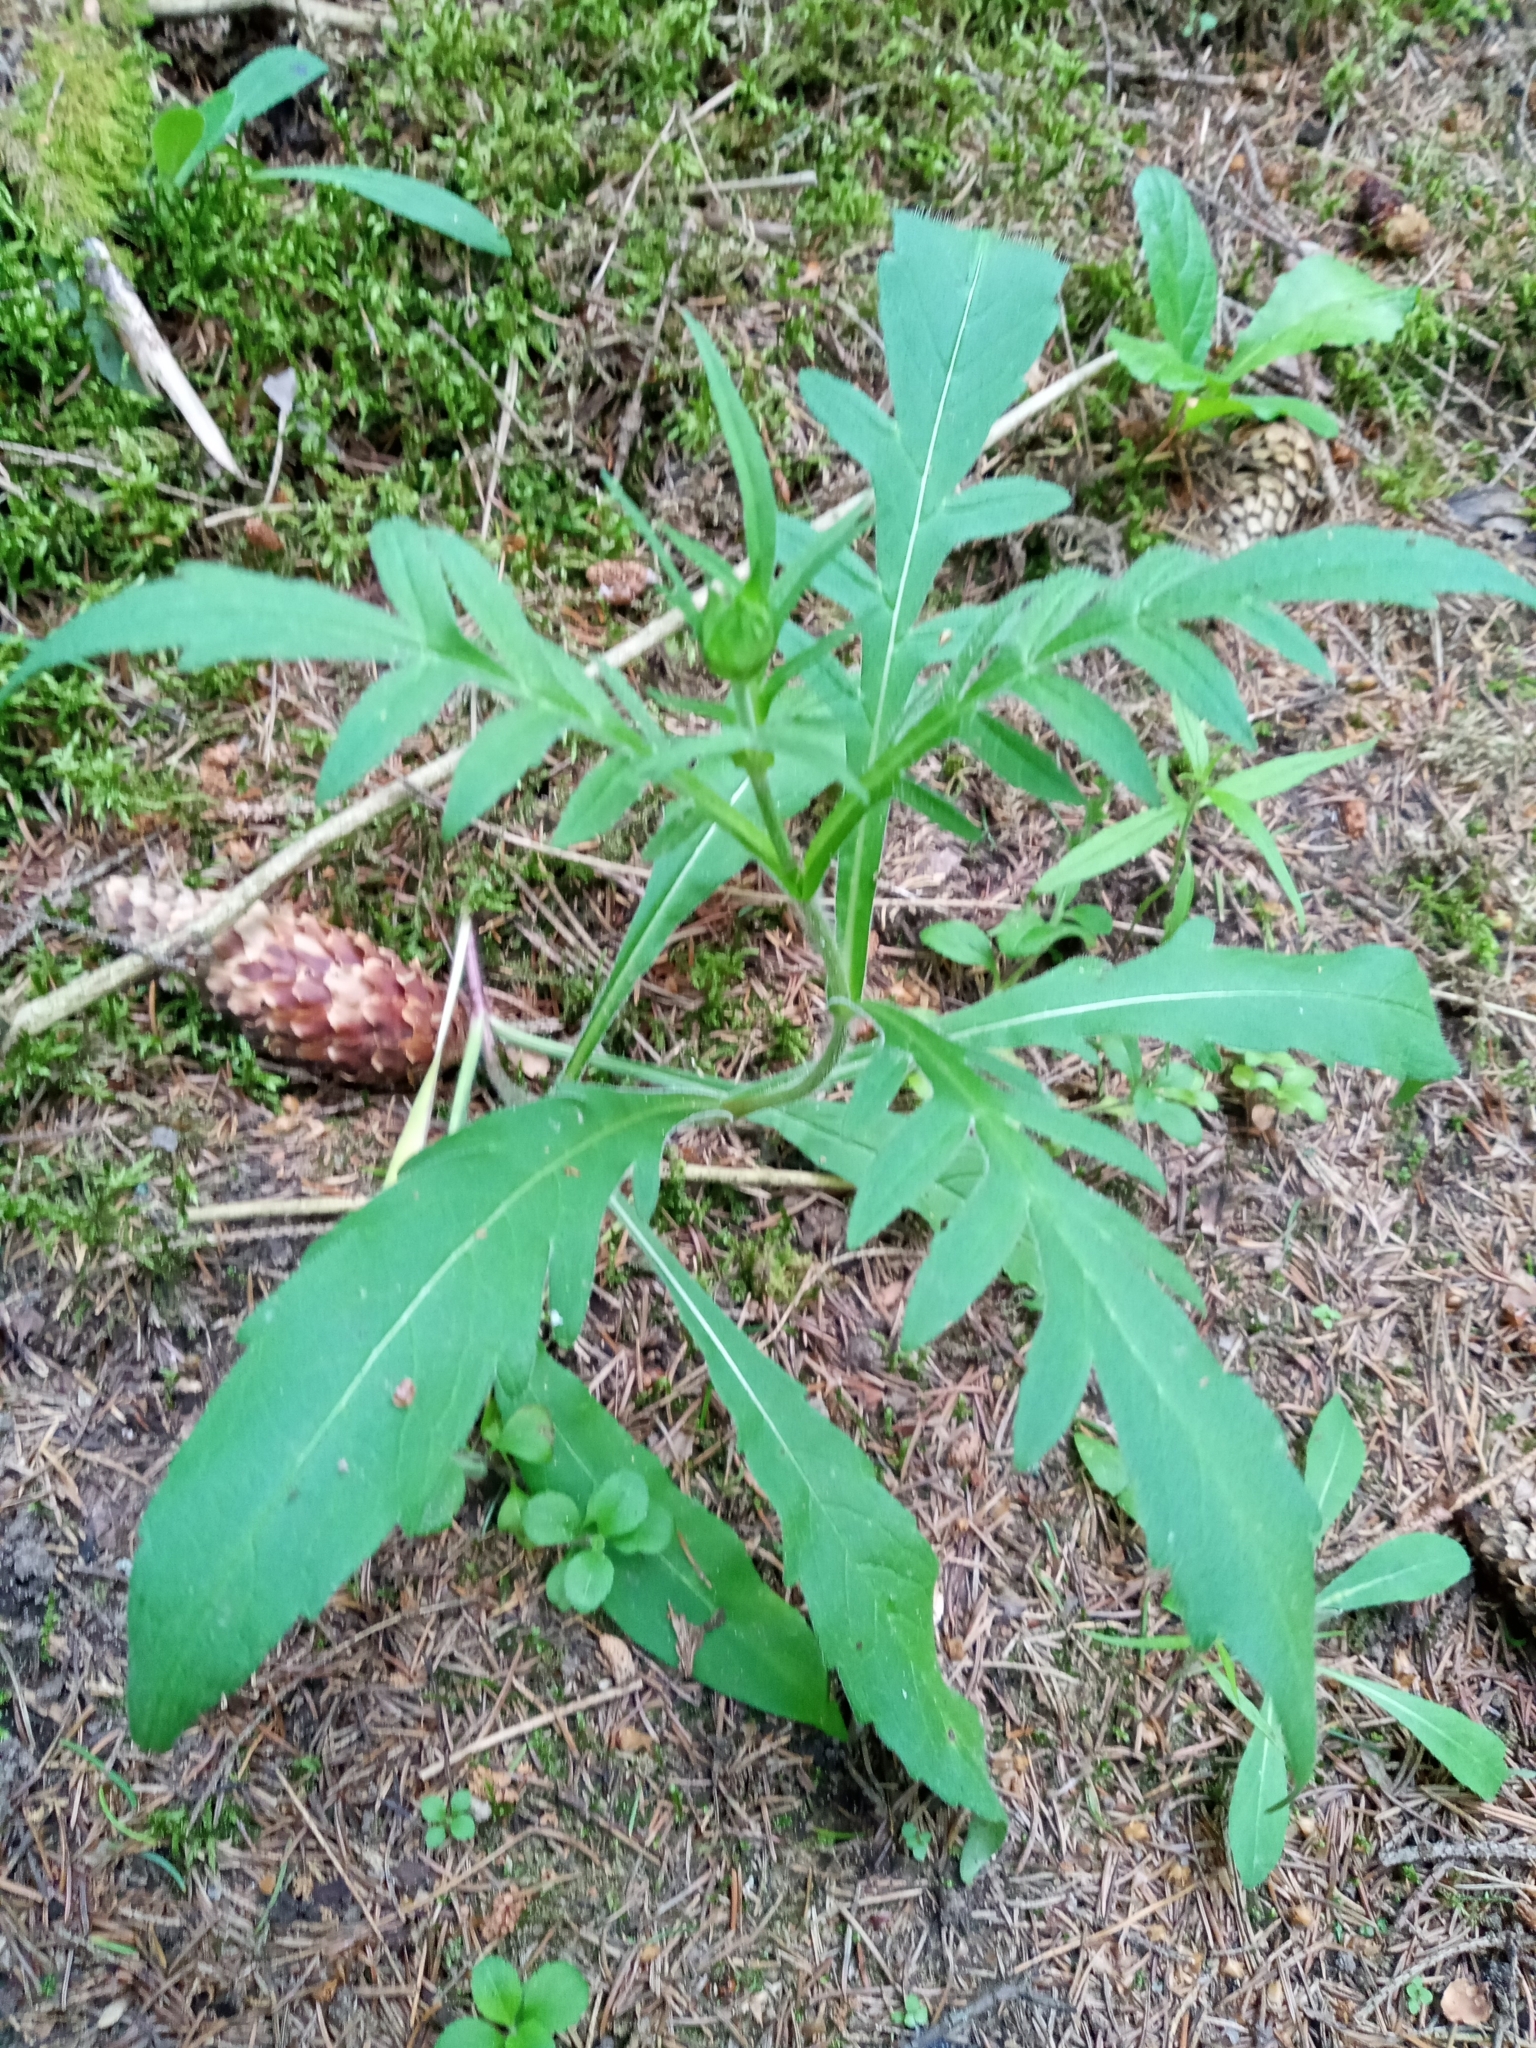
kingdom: Plantae
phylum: Tracheophyta
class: Magnoliopsida
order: Dipsacales
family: Caprifoliaceae
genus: Knautia
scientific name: Knautia arvensis
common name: Field scabiosa
